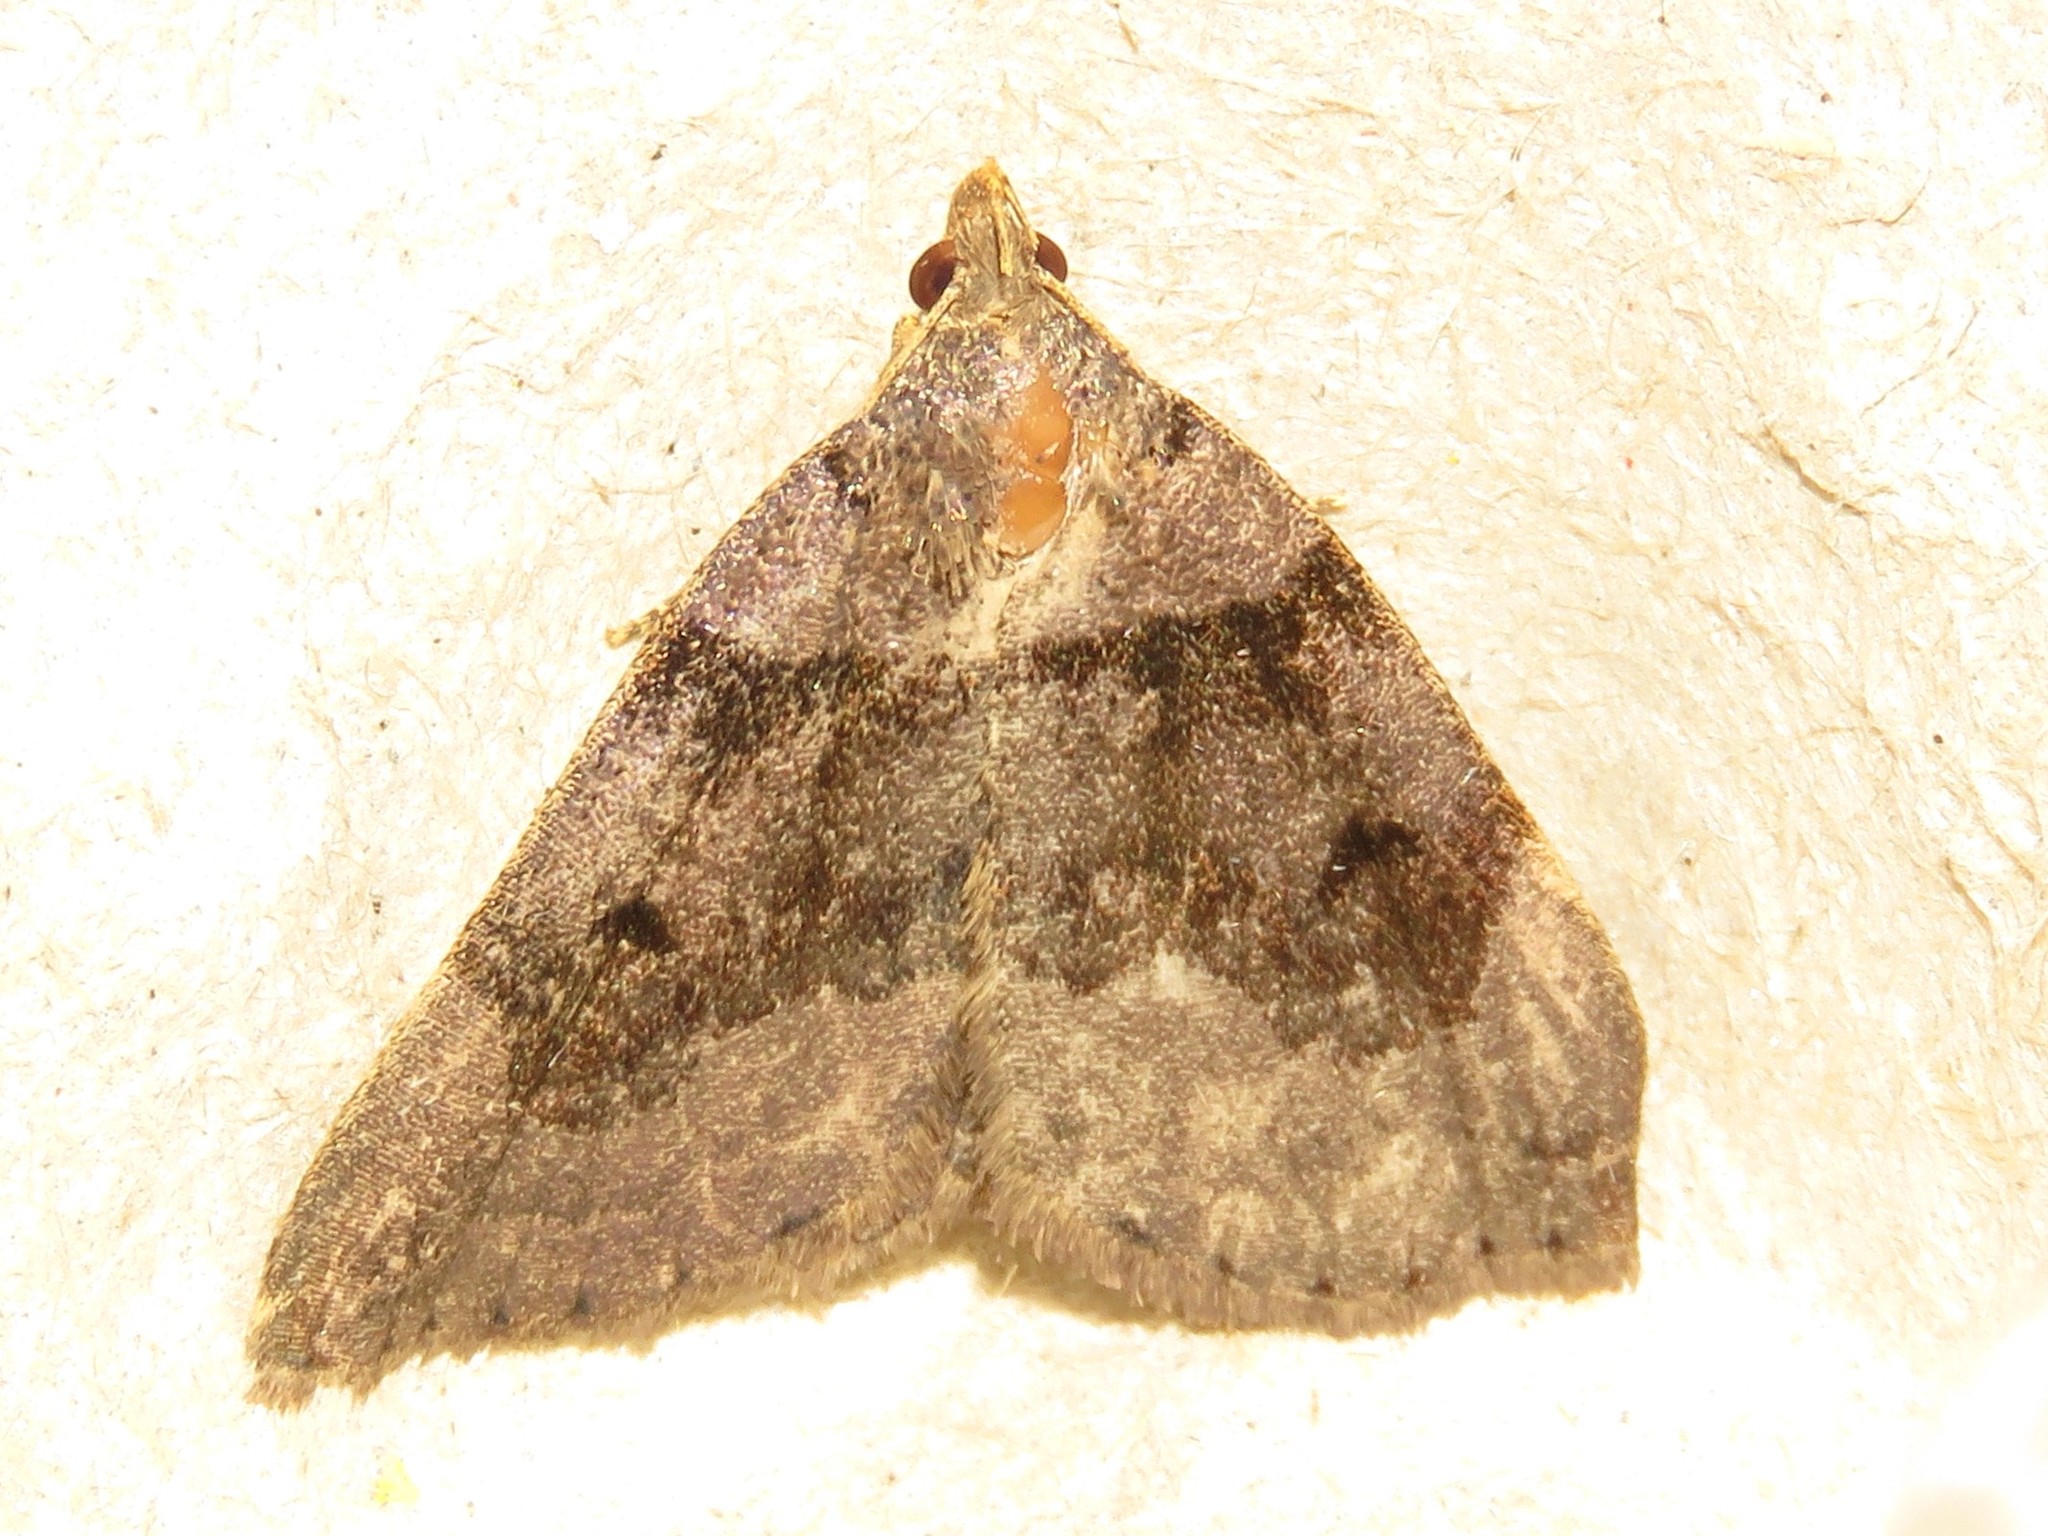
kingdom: Animalia
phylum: Arthropoda
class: Insecta
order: Lepidoptera
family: Erebidae
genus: Zanclognatha
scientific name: Zanclognatha laevigata
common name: Variable fan-foot
